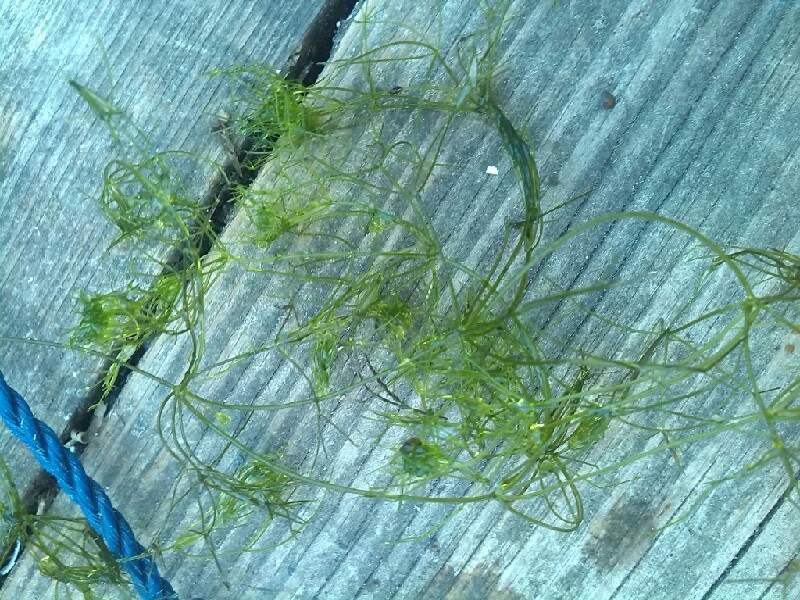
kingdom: Plantae
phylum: Charophyta
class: Charophyceae
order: Charales
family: Characeae
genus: Nitella
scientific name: Nitella mucronata
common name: Compact stonewort
